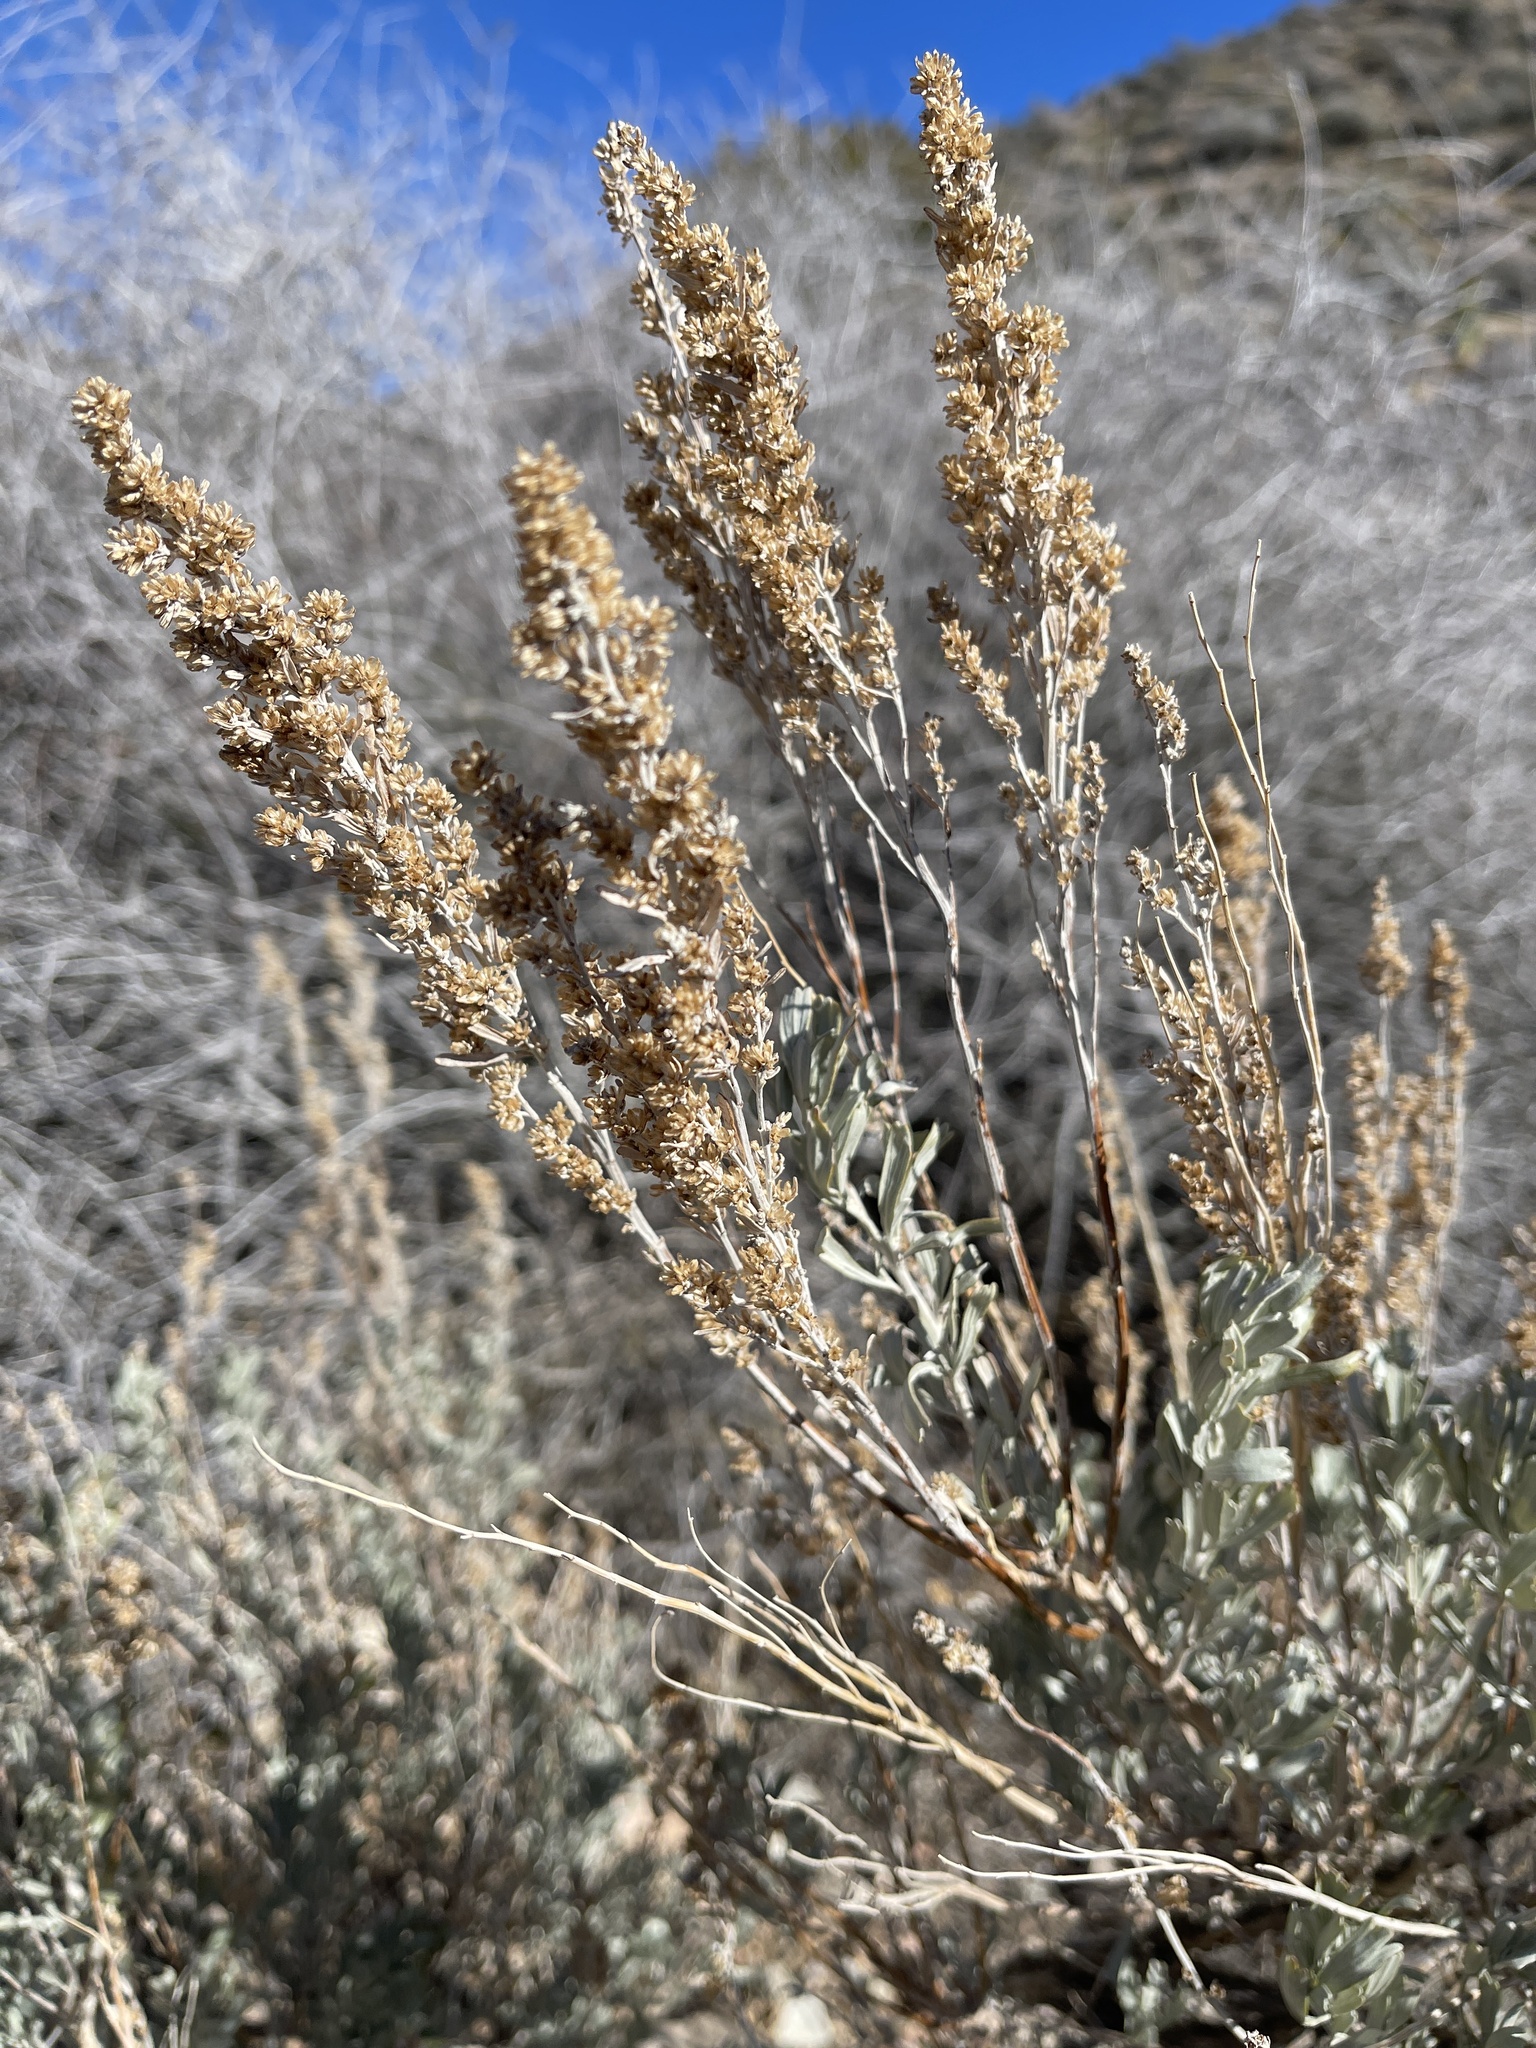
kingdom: Plantae
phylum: Tracheophyta
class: Magnoliopsida
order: Asterales
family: Asteraceae
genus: Artemisia
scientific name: Artemisia tridentata
